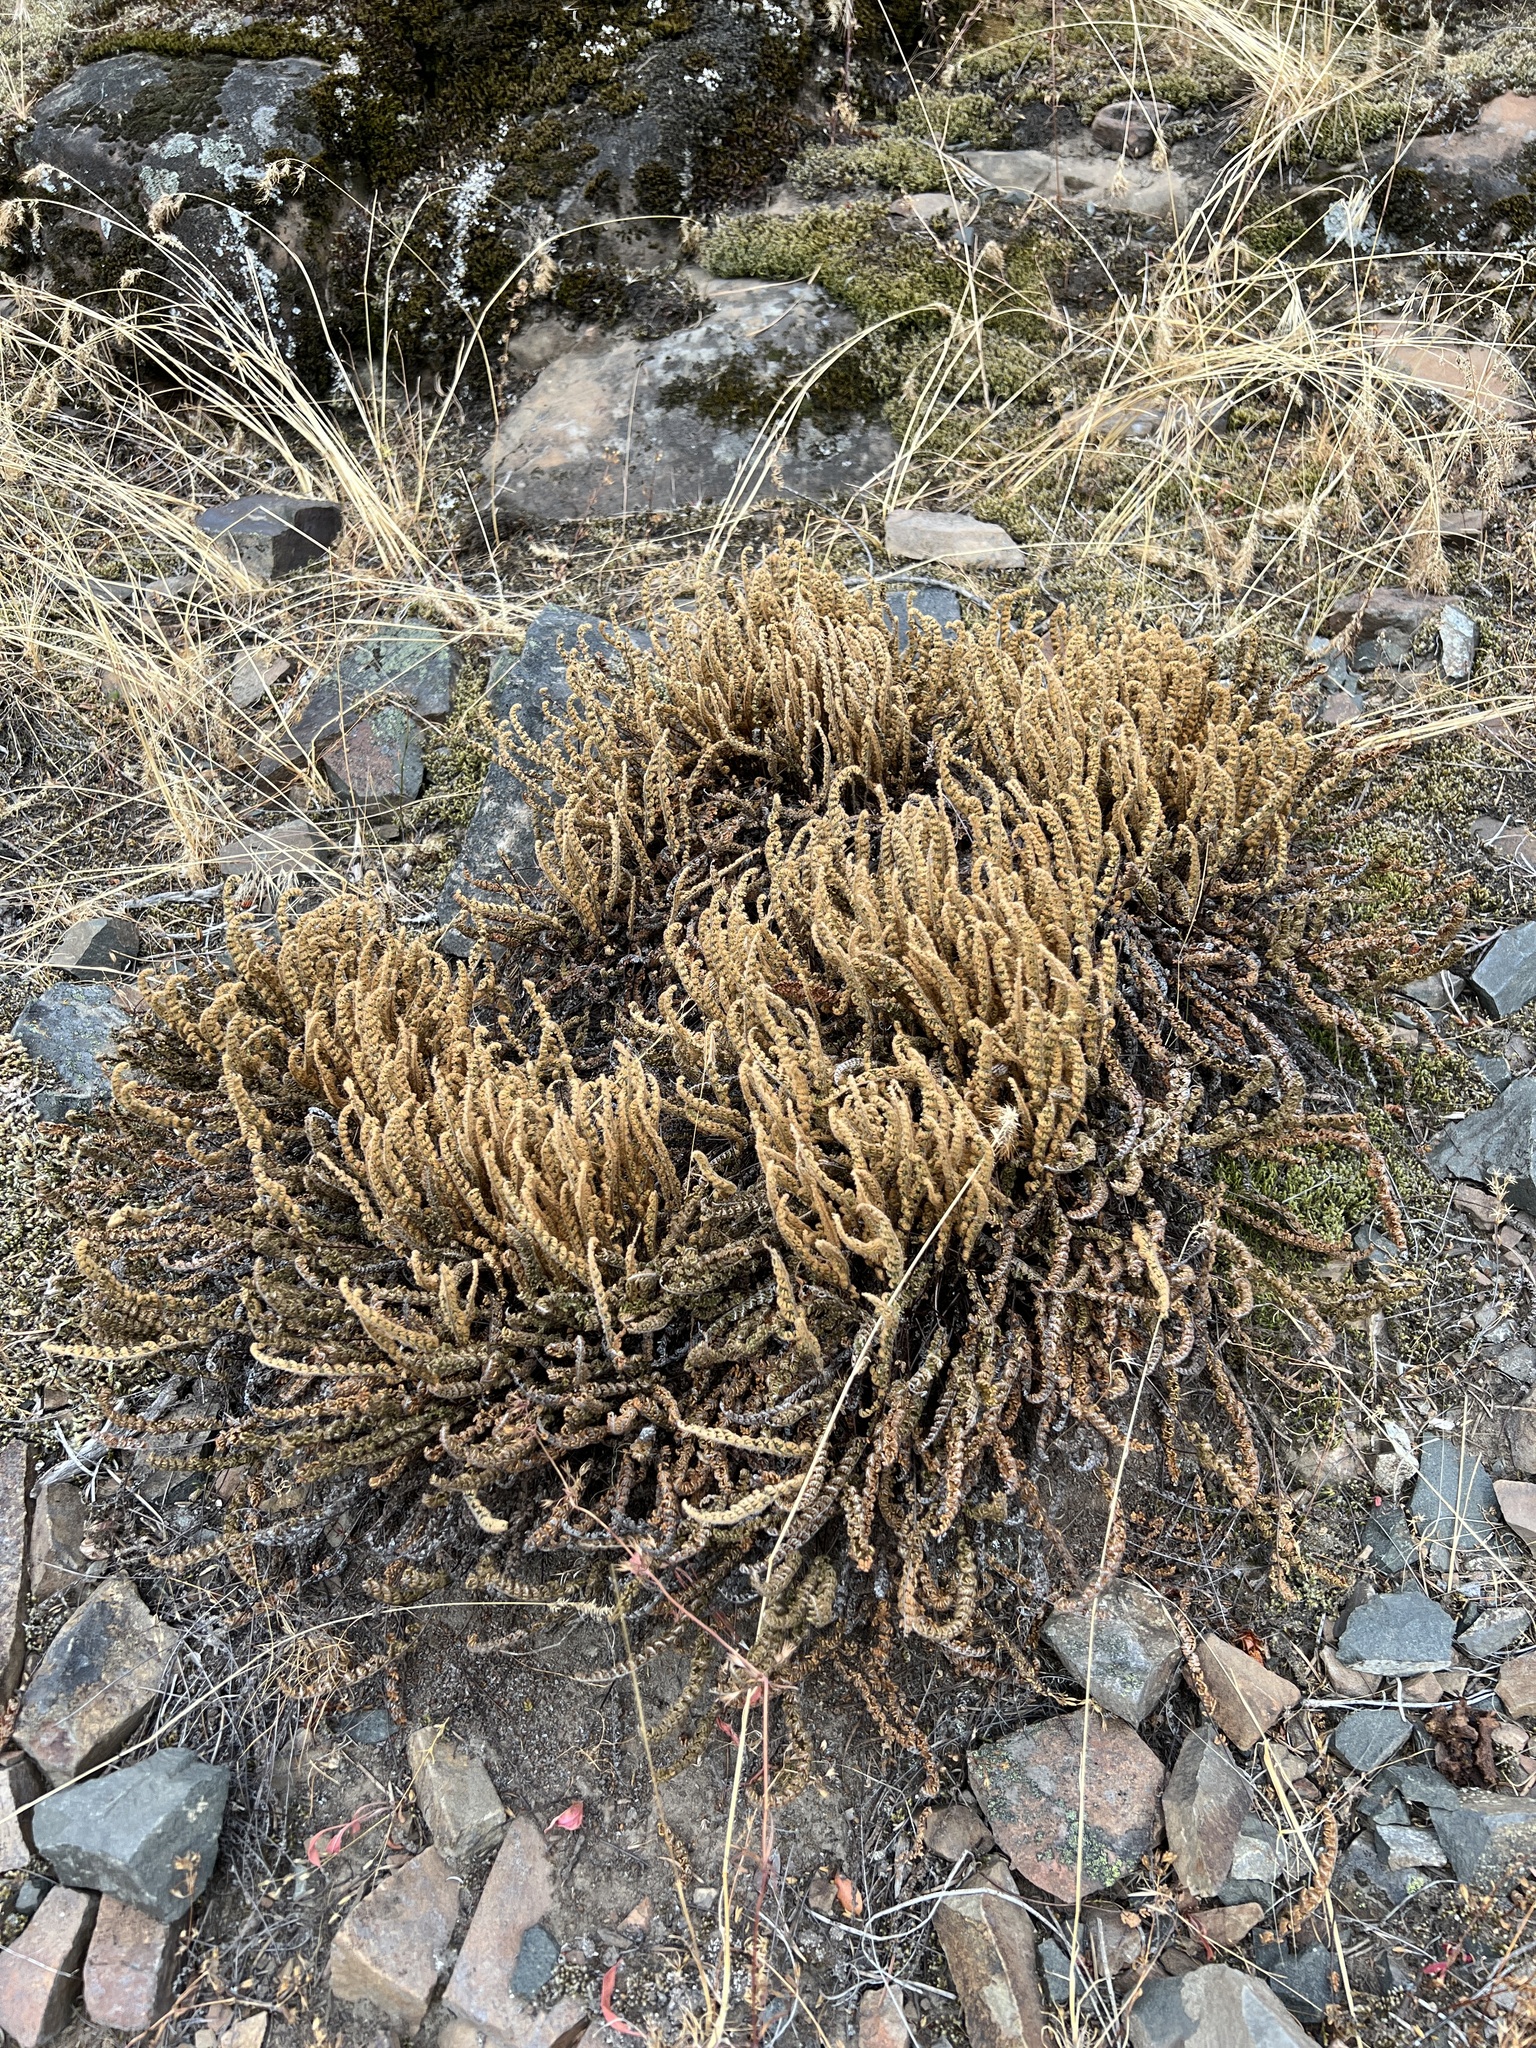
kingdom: Plantae
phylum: Tracheophyta
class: Polypodiopsida
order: Polypodiales
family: Pteridaceae
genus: Myriopteris
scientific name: Myriopteris gracillima
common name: Lace fern
